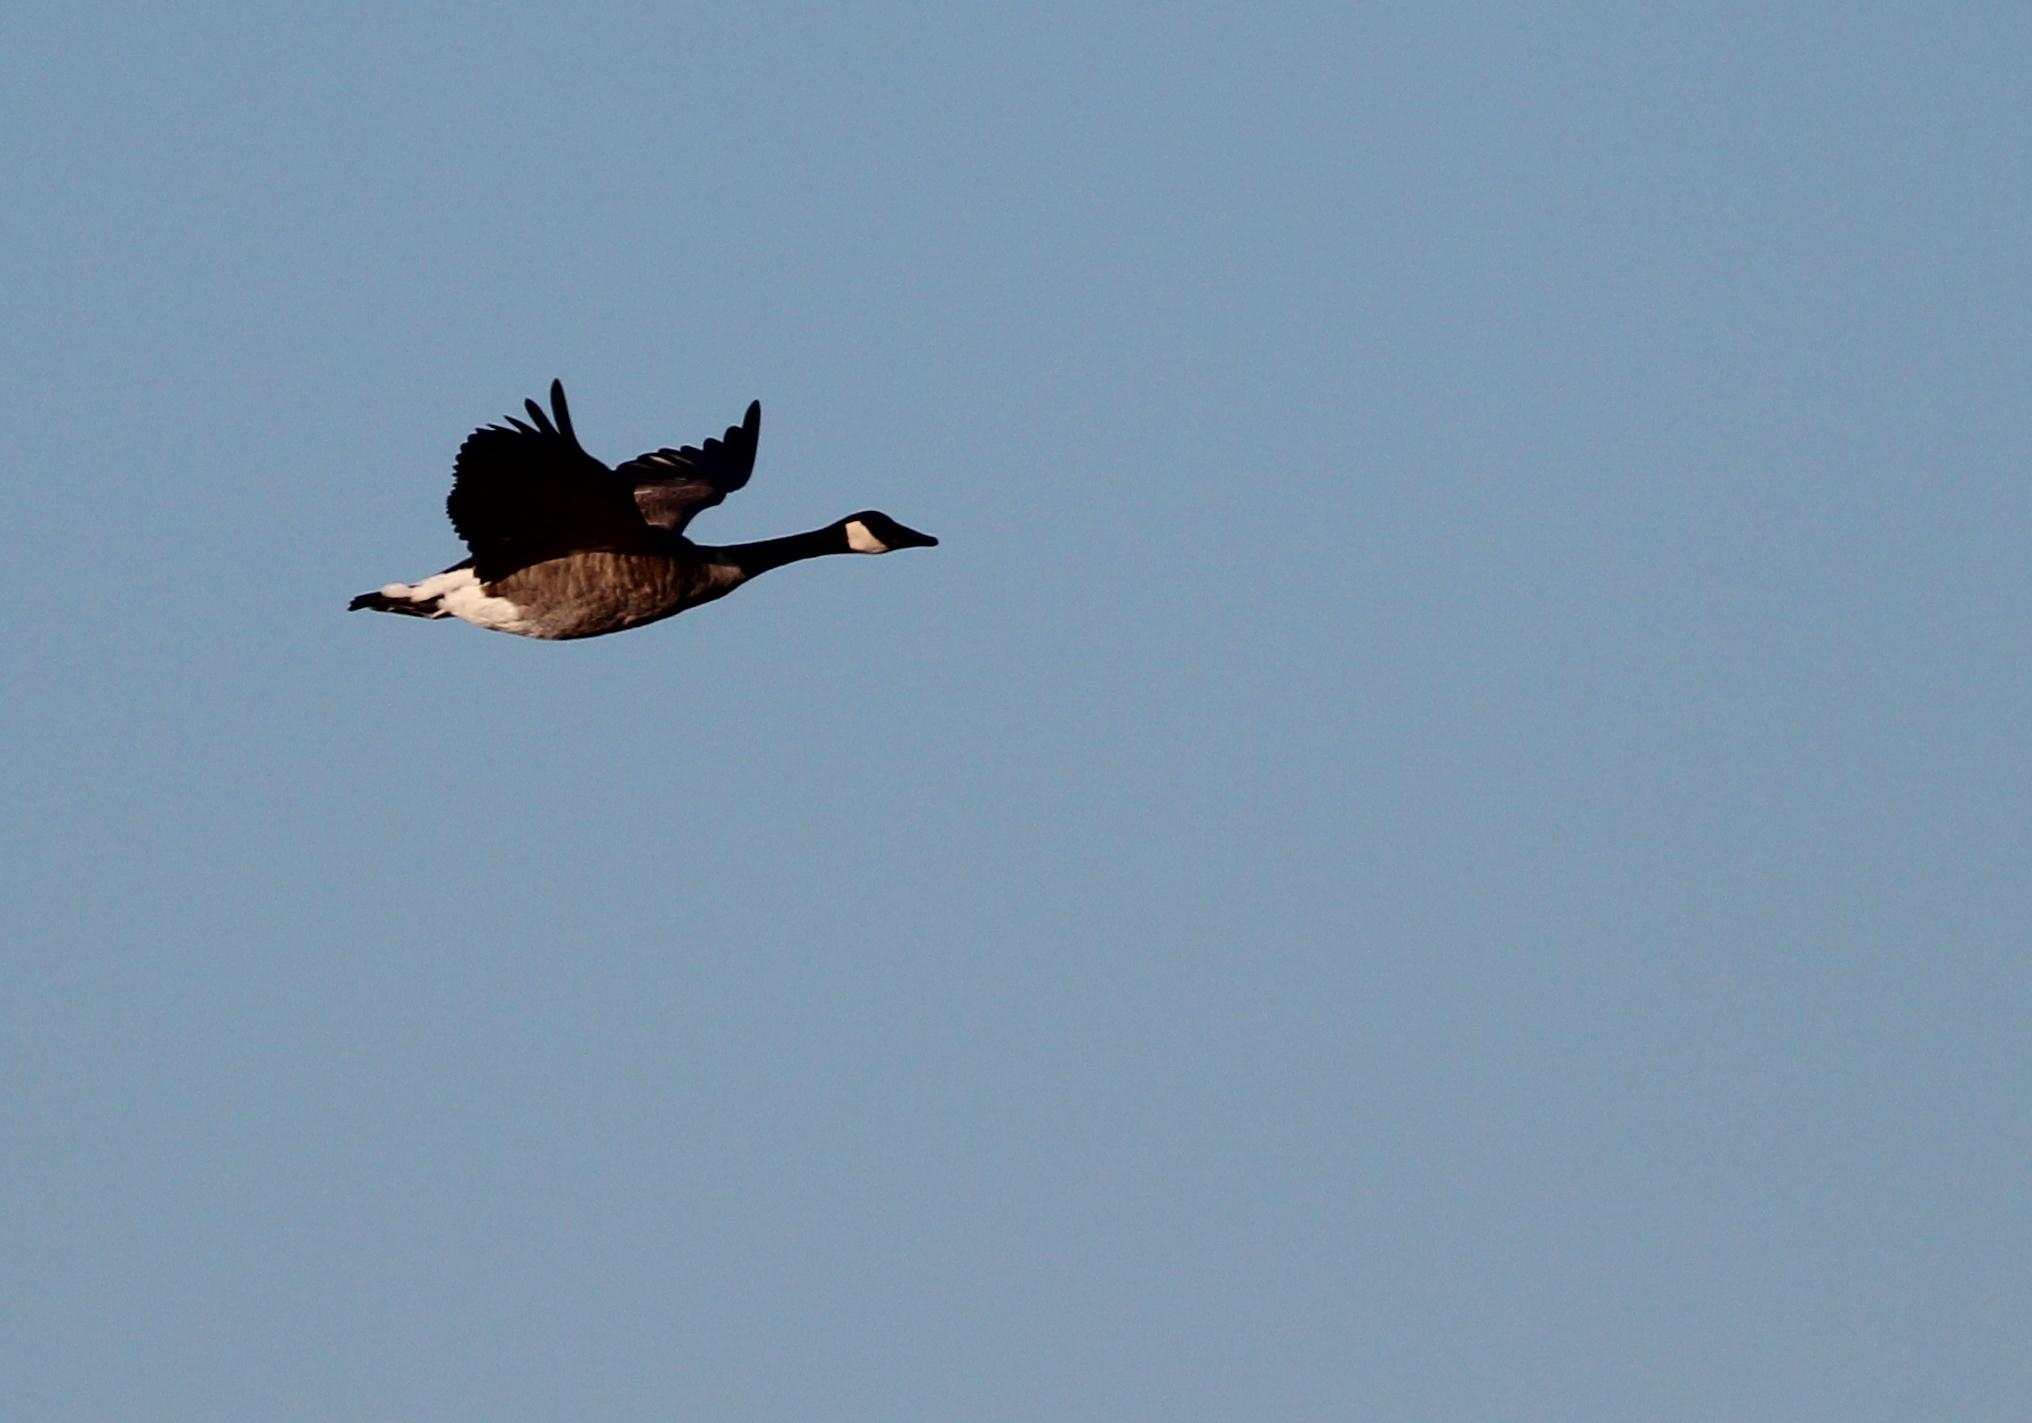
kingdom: Animalia
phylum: Chordata
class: Aves
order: Anseriformes
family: Anatidae
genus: Branta
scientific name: Branta canadensis
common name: Canada goose
